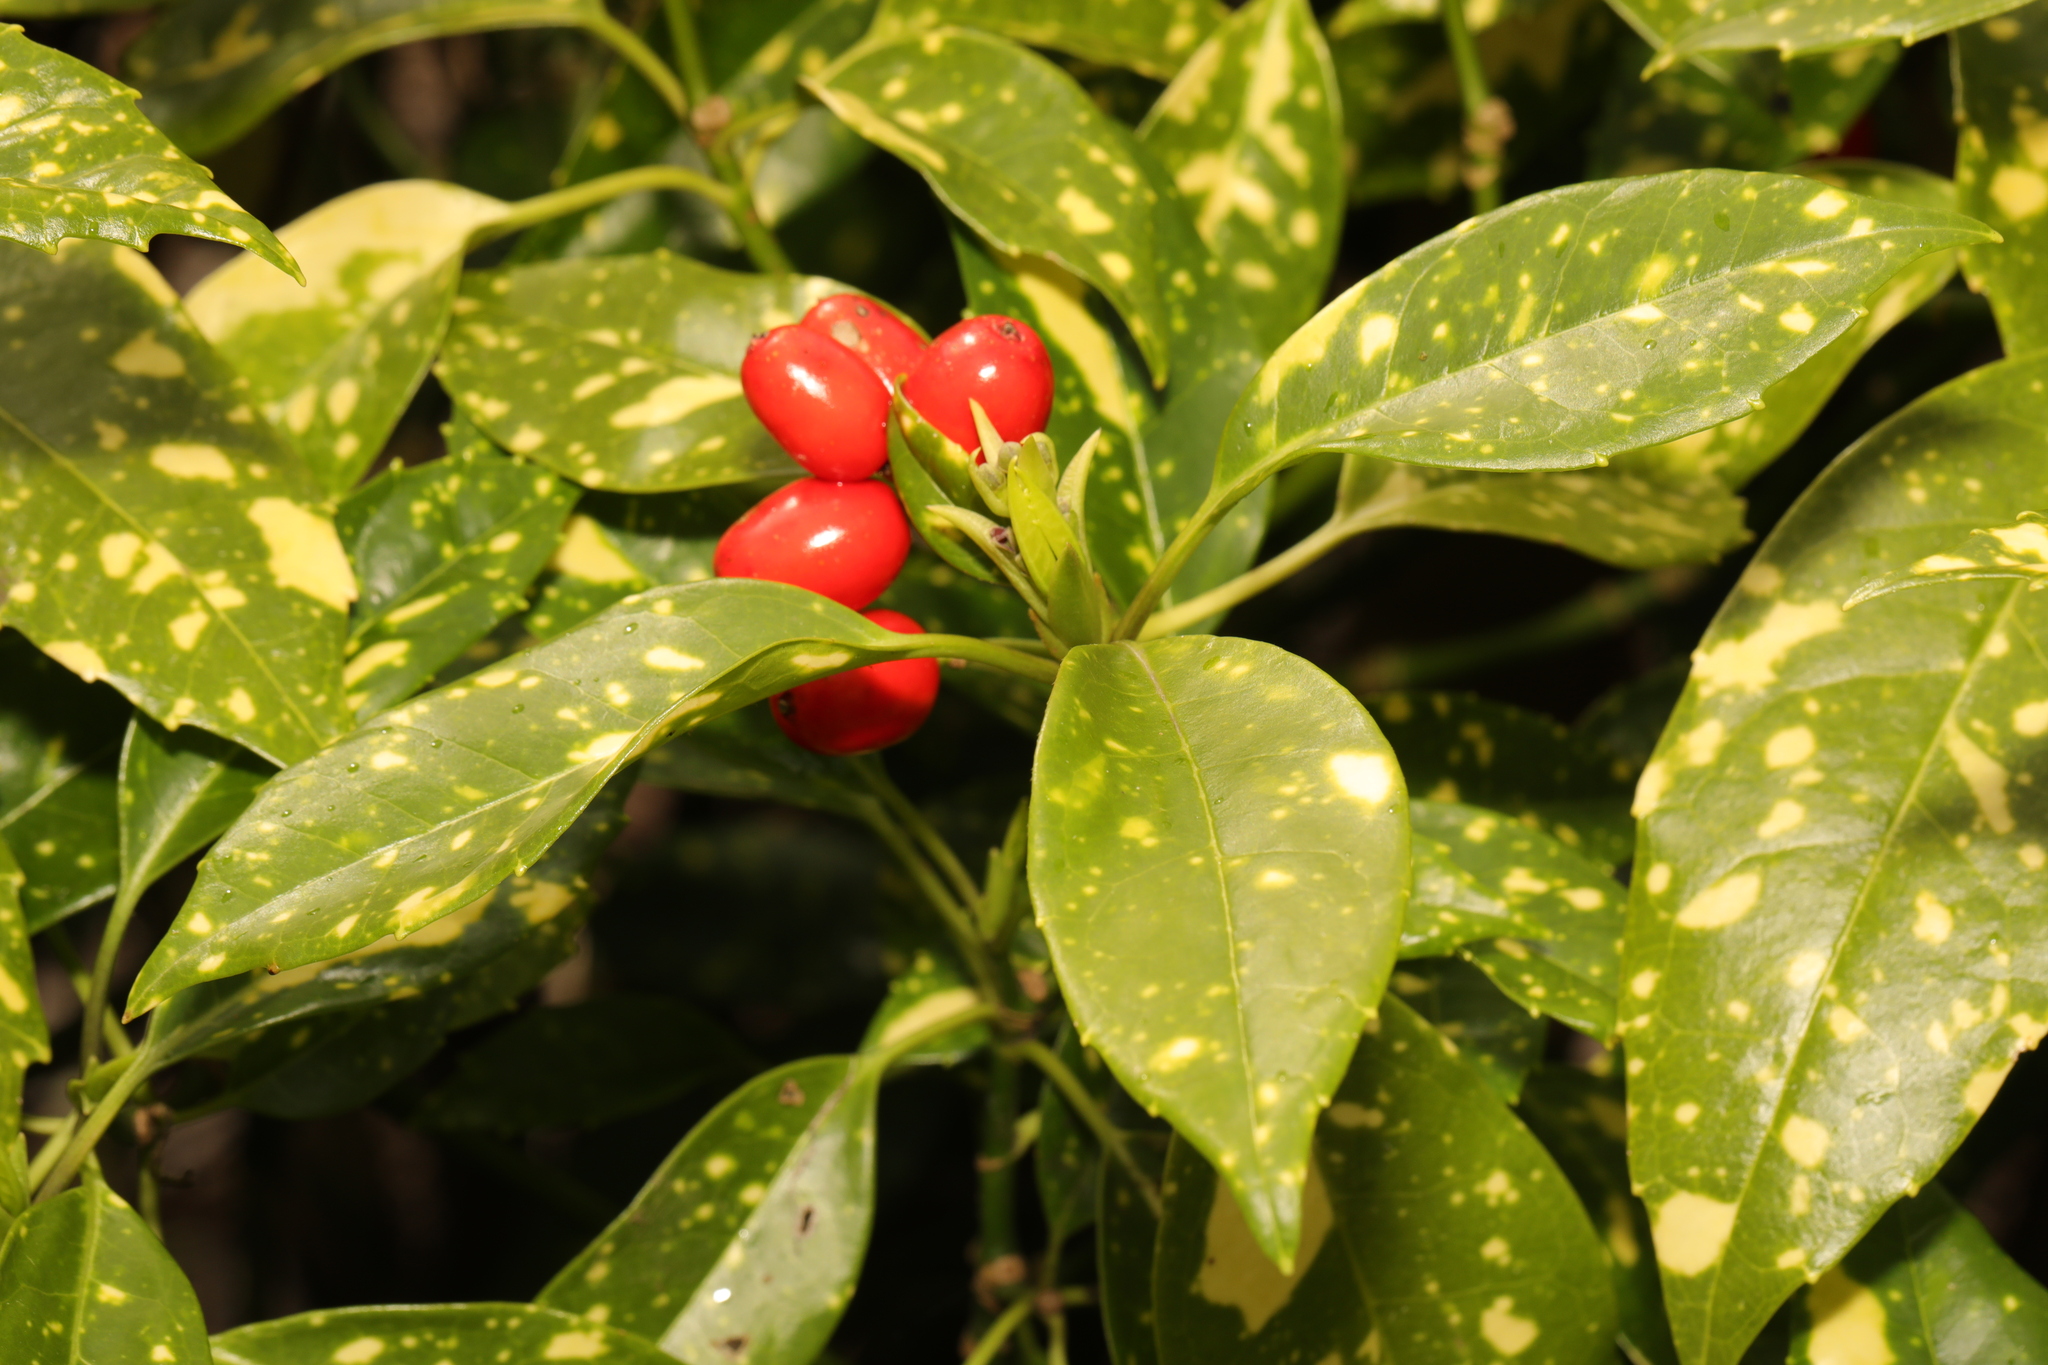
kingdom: Plantae
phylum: Tracheophyta
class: Magnoliopsida
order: Garryales
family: Garryaceae
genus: Aucuba
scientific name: Aucuba japonica
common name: Spotted-laurel
